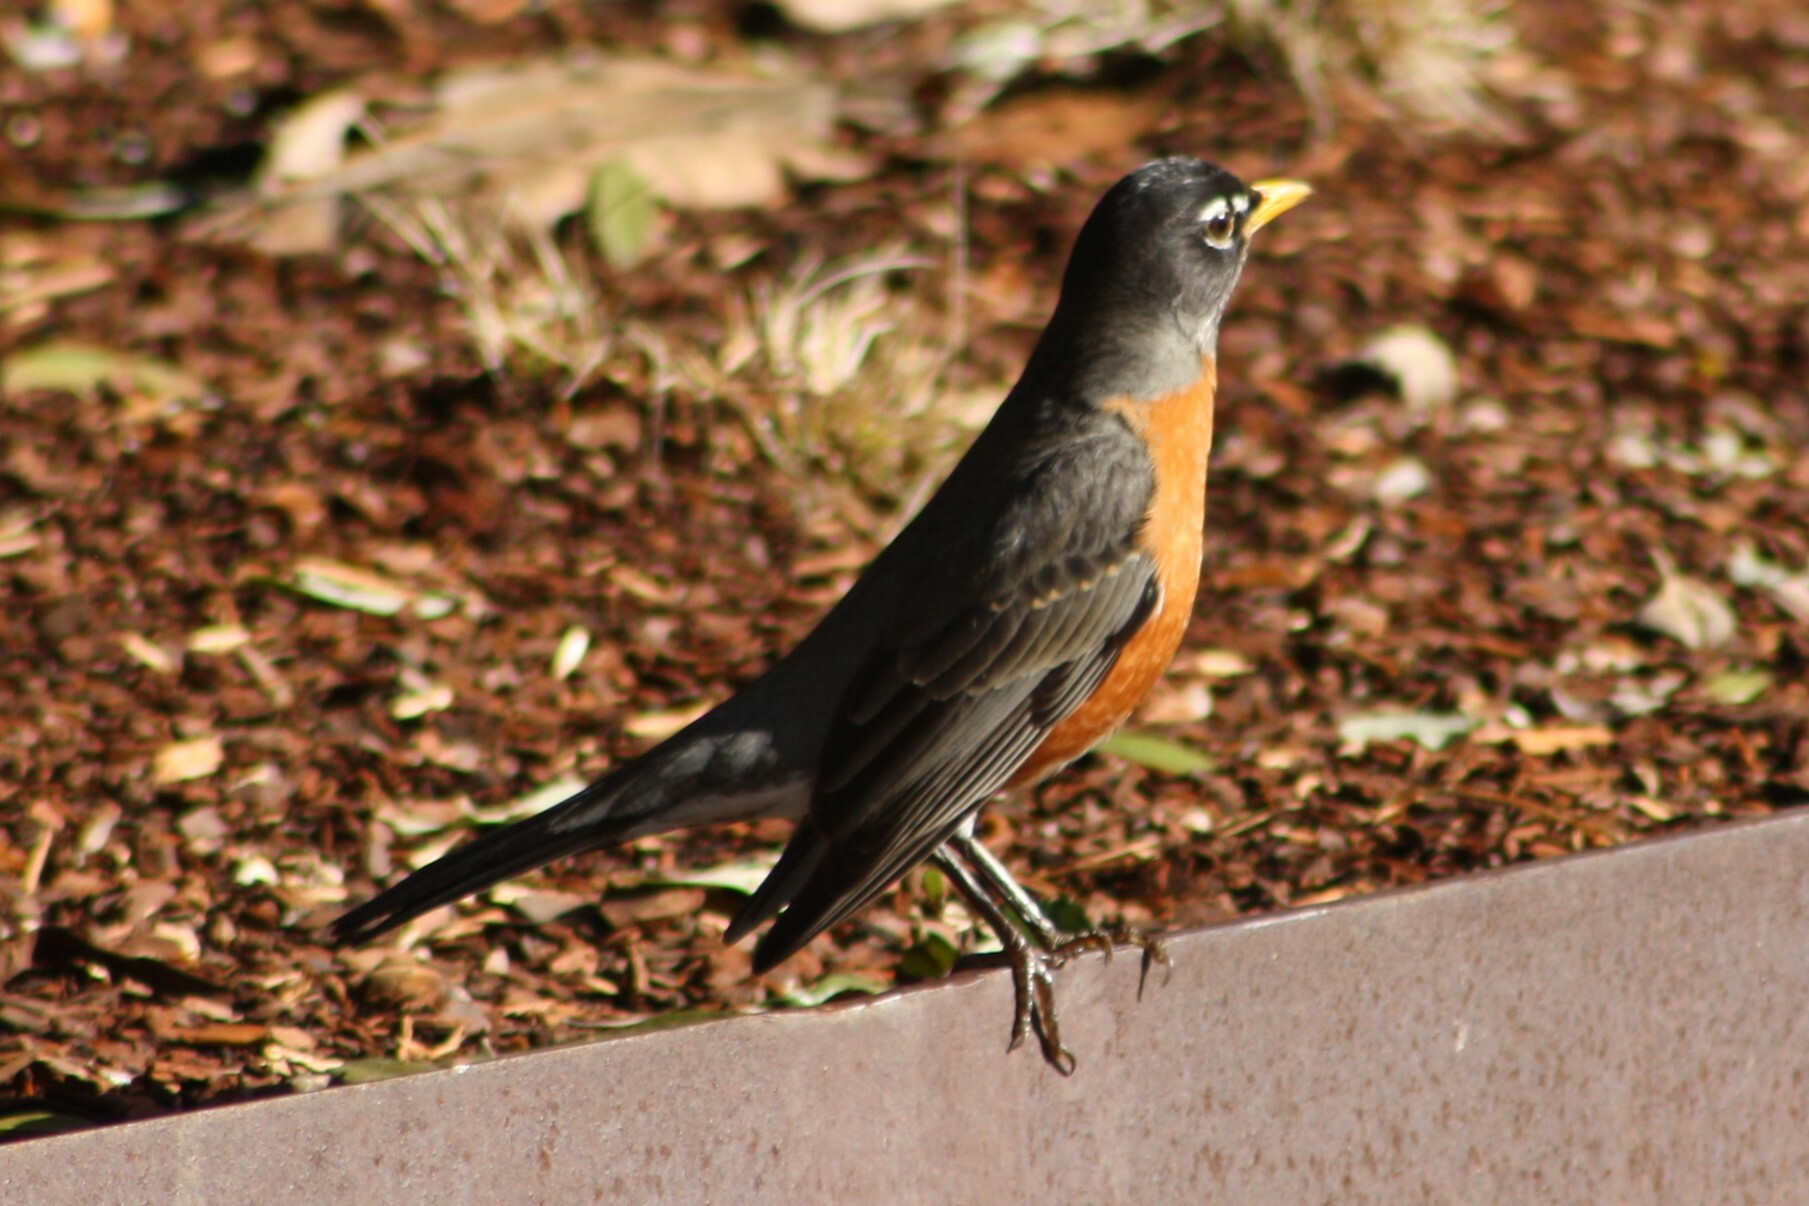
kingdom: Animalia
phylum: Chordata
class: Aves
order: Passeriformes
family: Turdidae
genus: Turdus
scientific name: Turdus migratorius
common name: American robin
